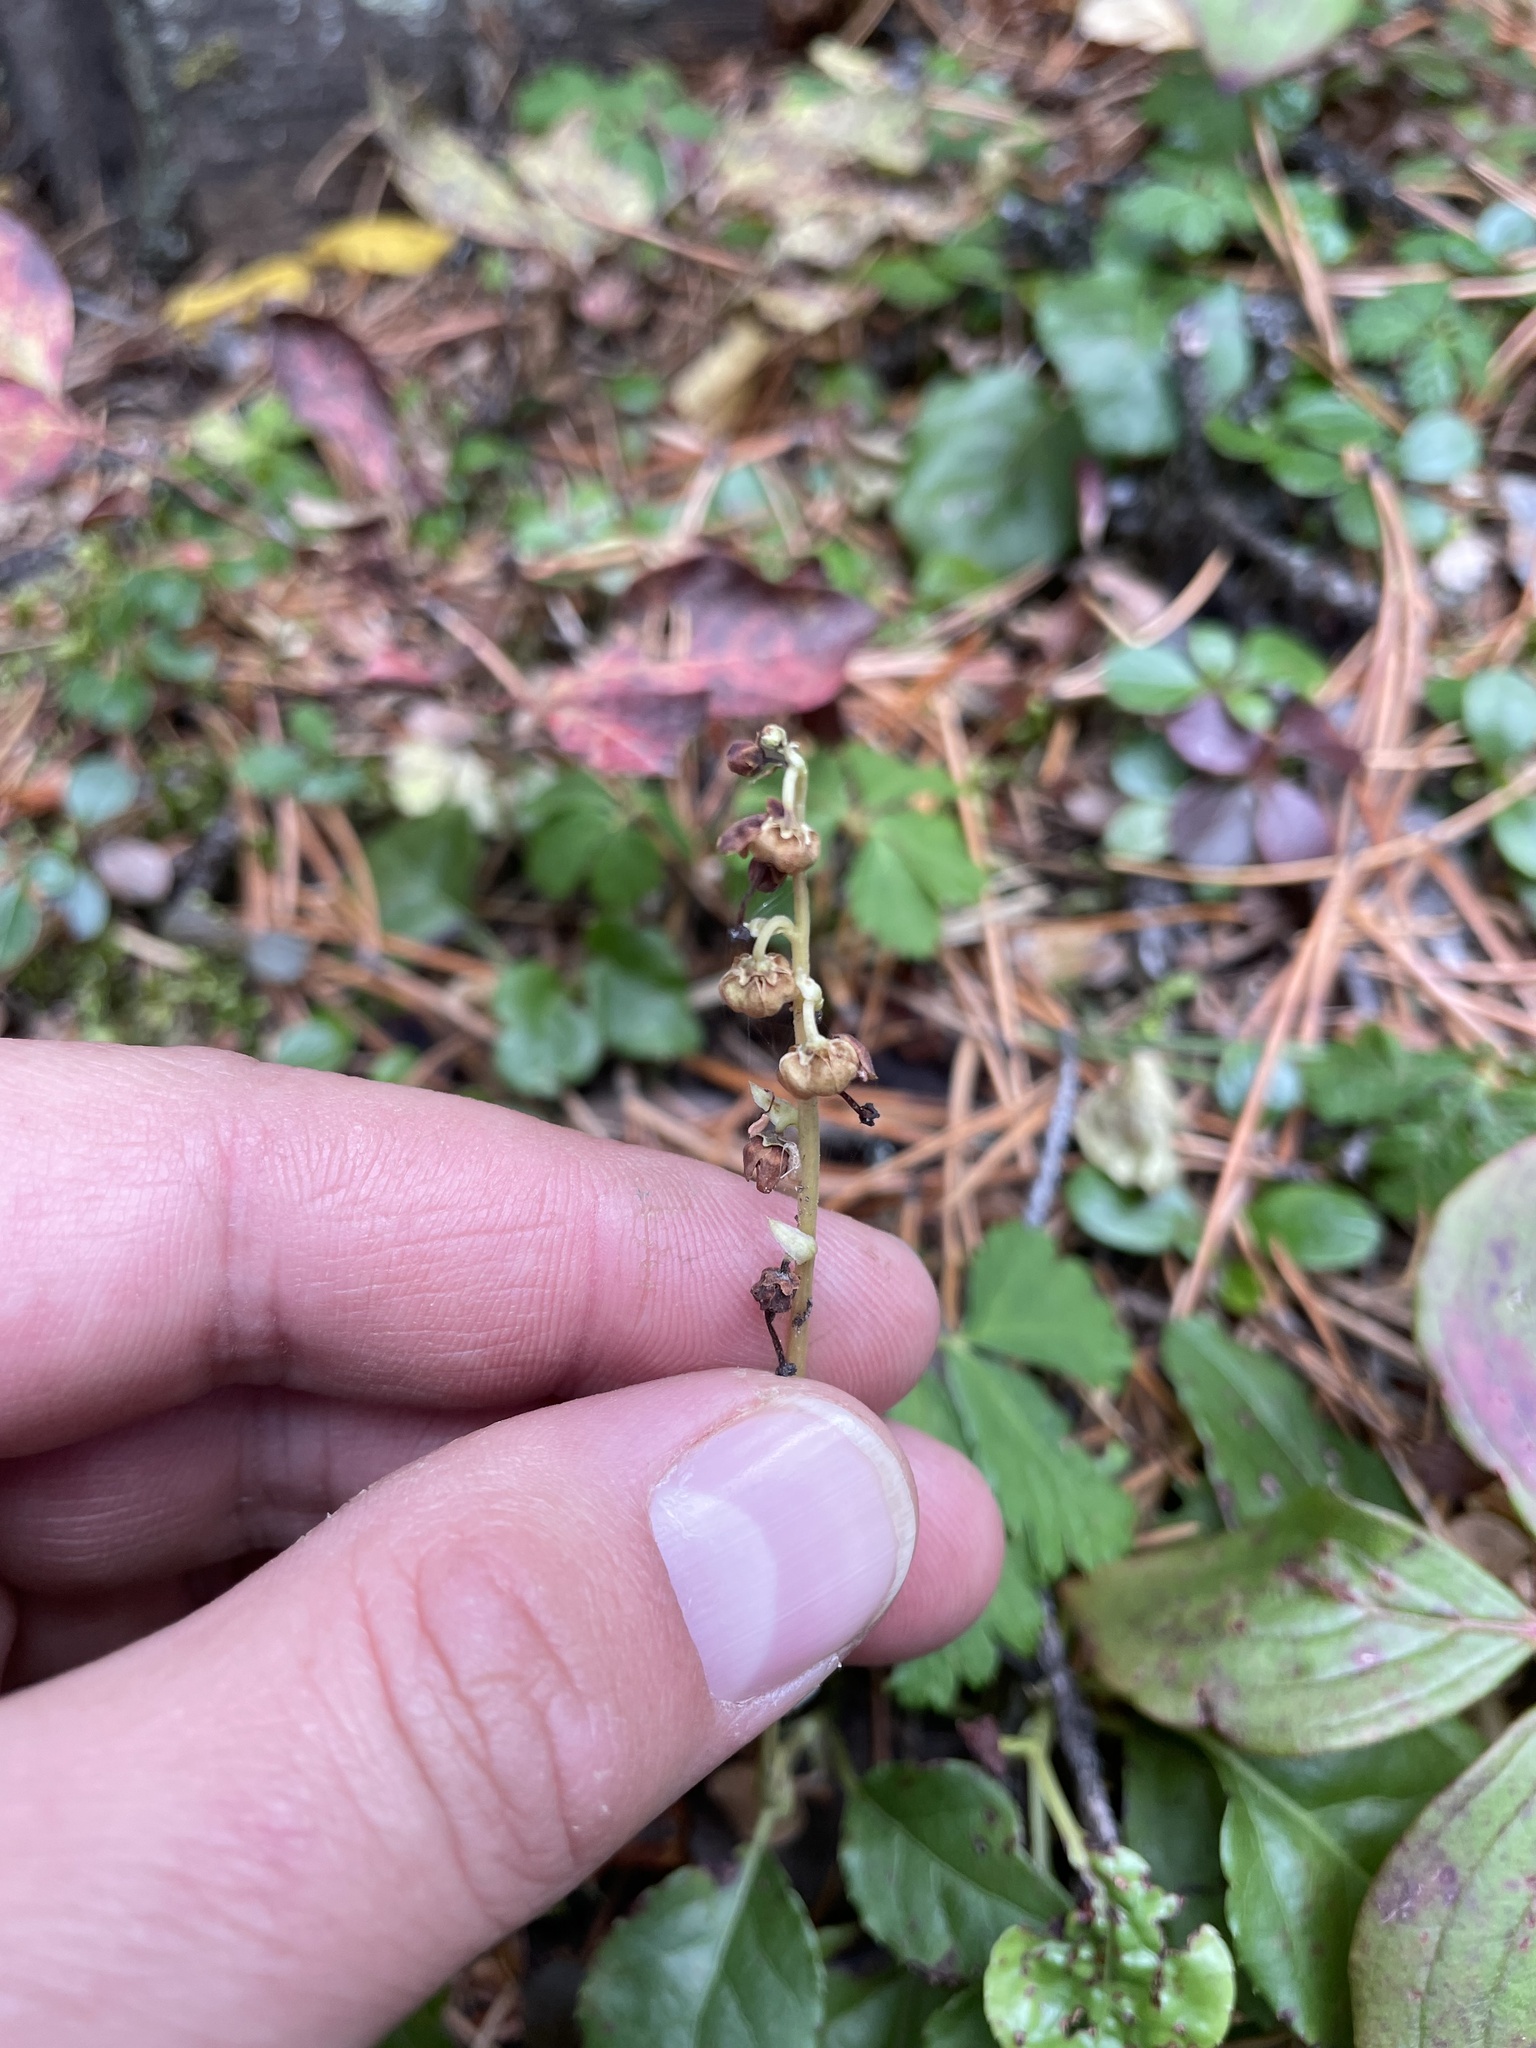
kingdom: Plantae
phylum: Tracheophyta
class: Magnoliopsida
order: Ericales
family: Ericaceae
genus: Orthilia
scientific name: Orthilia secunda
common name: One-sided orthilia
